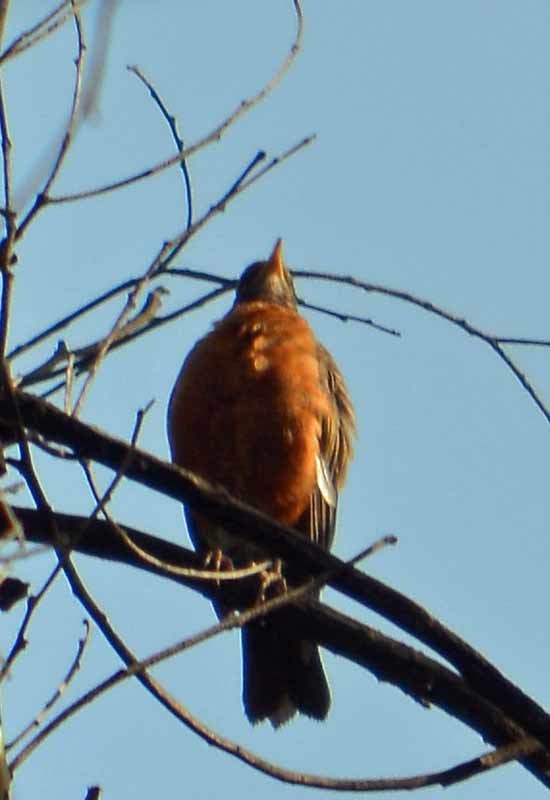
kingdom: Animalia
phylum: Chordata
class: Aves
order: Passeriformes
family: Turdidae
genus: Turdus
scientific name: Turdus migratorius
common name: American robin
